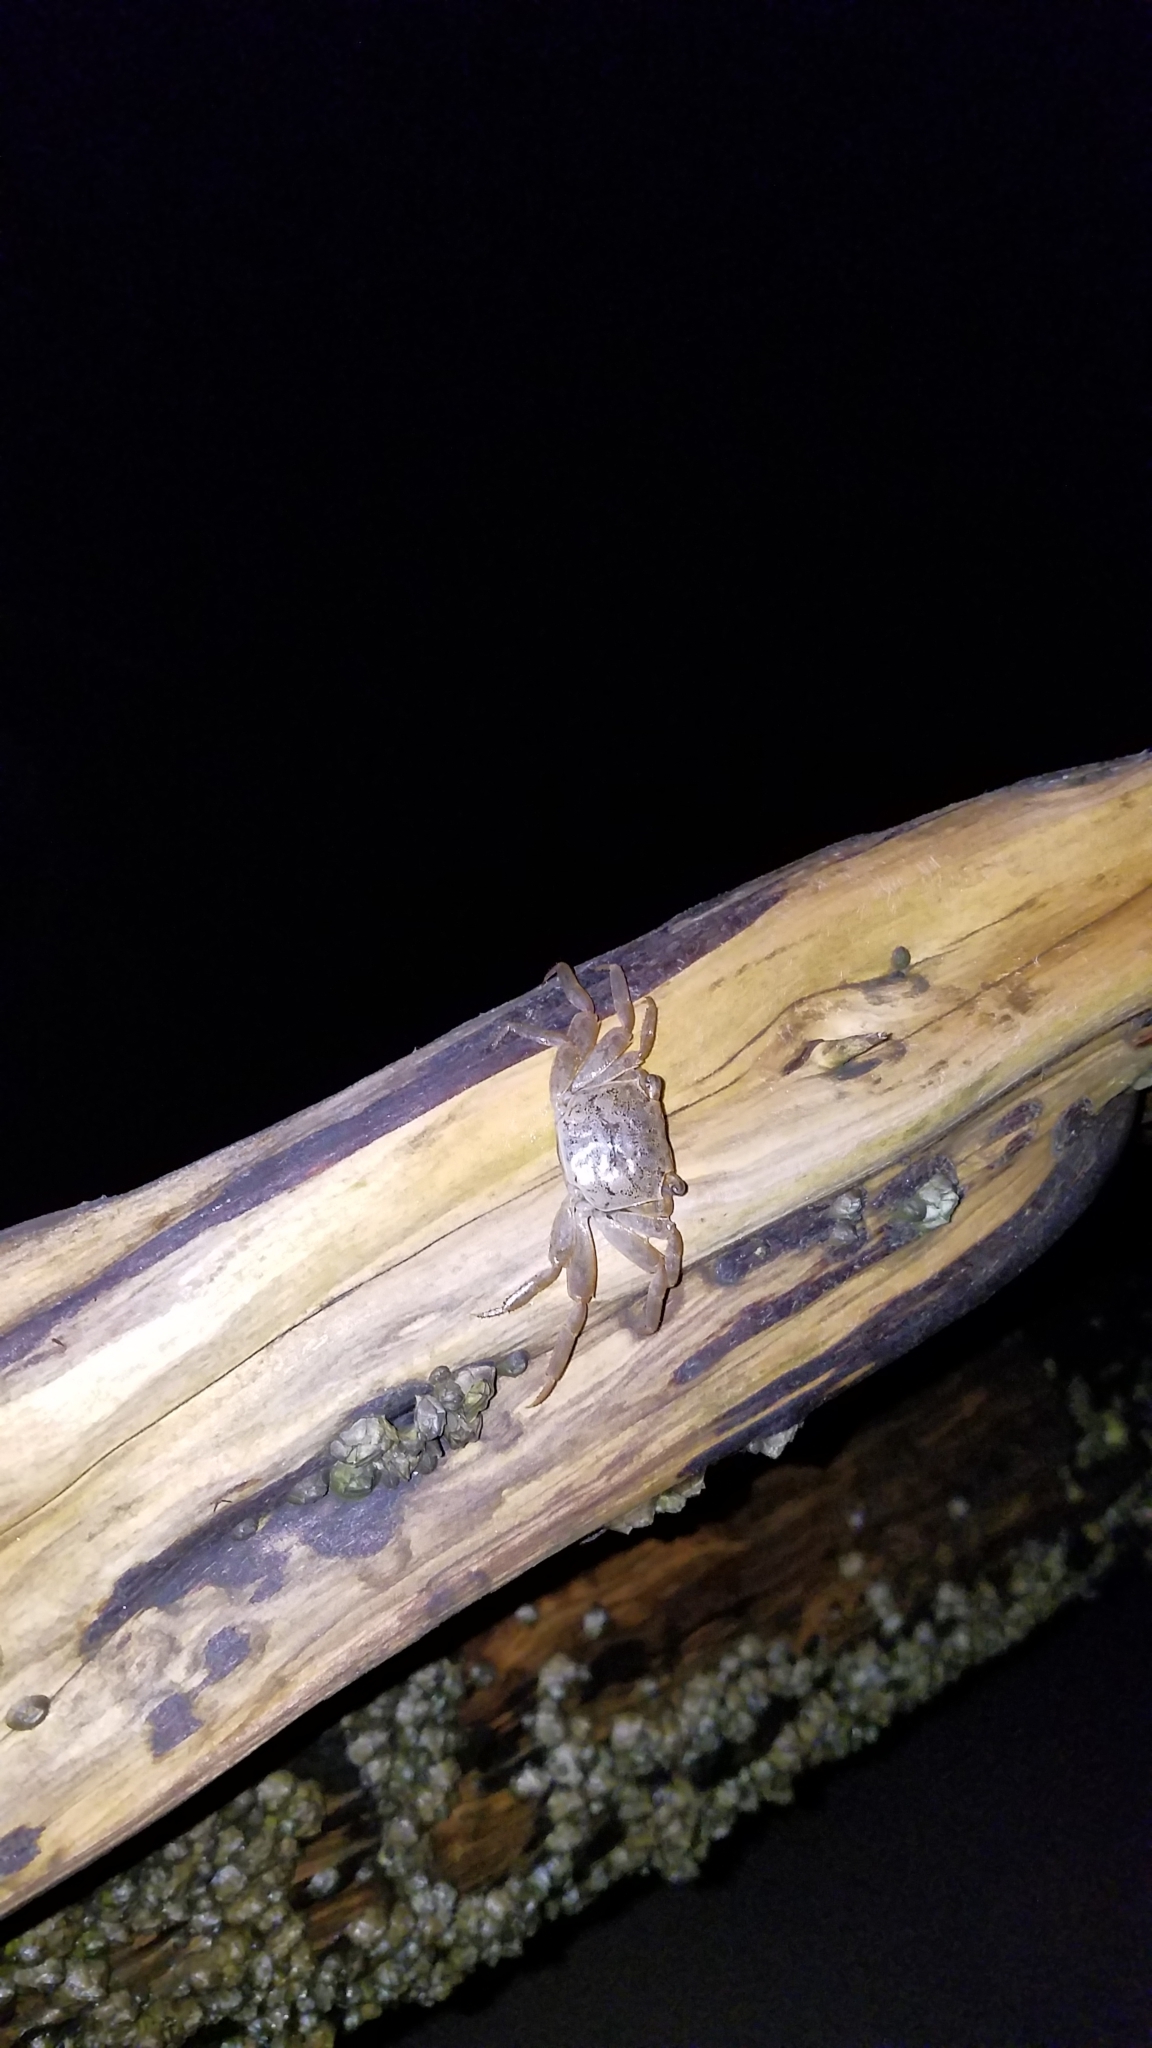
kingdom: Animalia
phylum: Arthropoda
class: Malacostraca
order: Decapoda
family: Sesarmidae
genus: Armases
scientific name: Armases cinereum
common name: Squareback marsh crab
